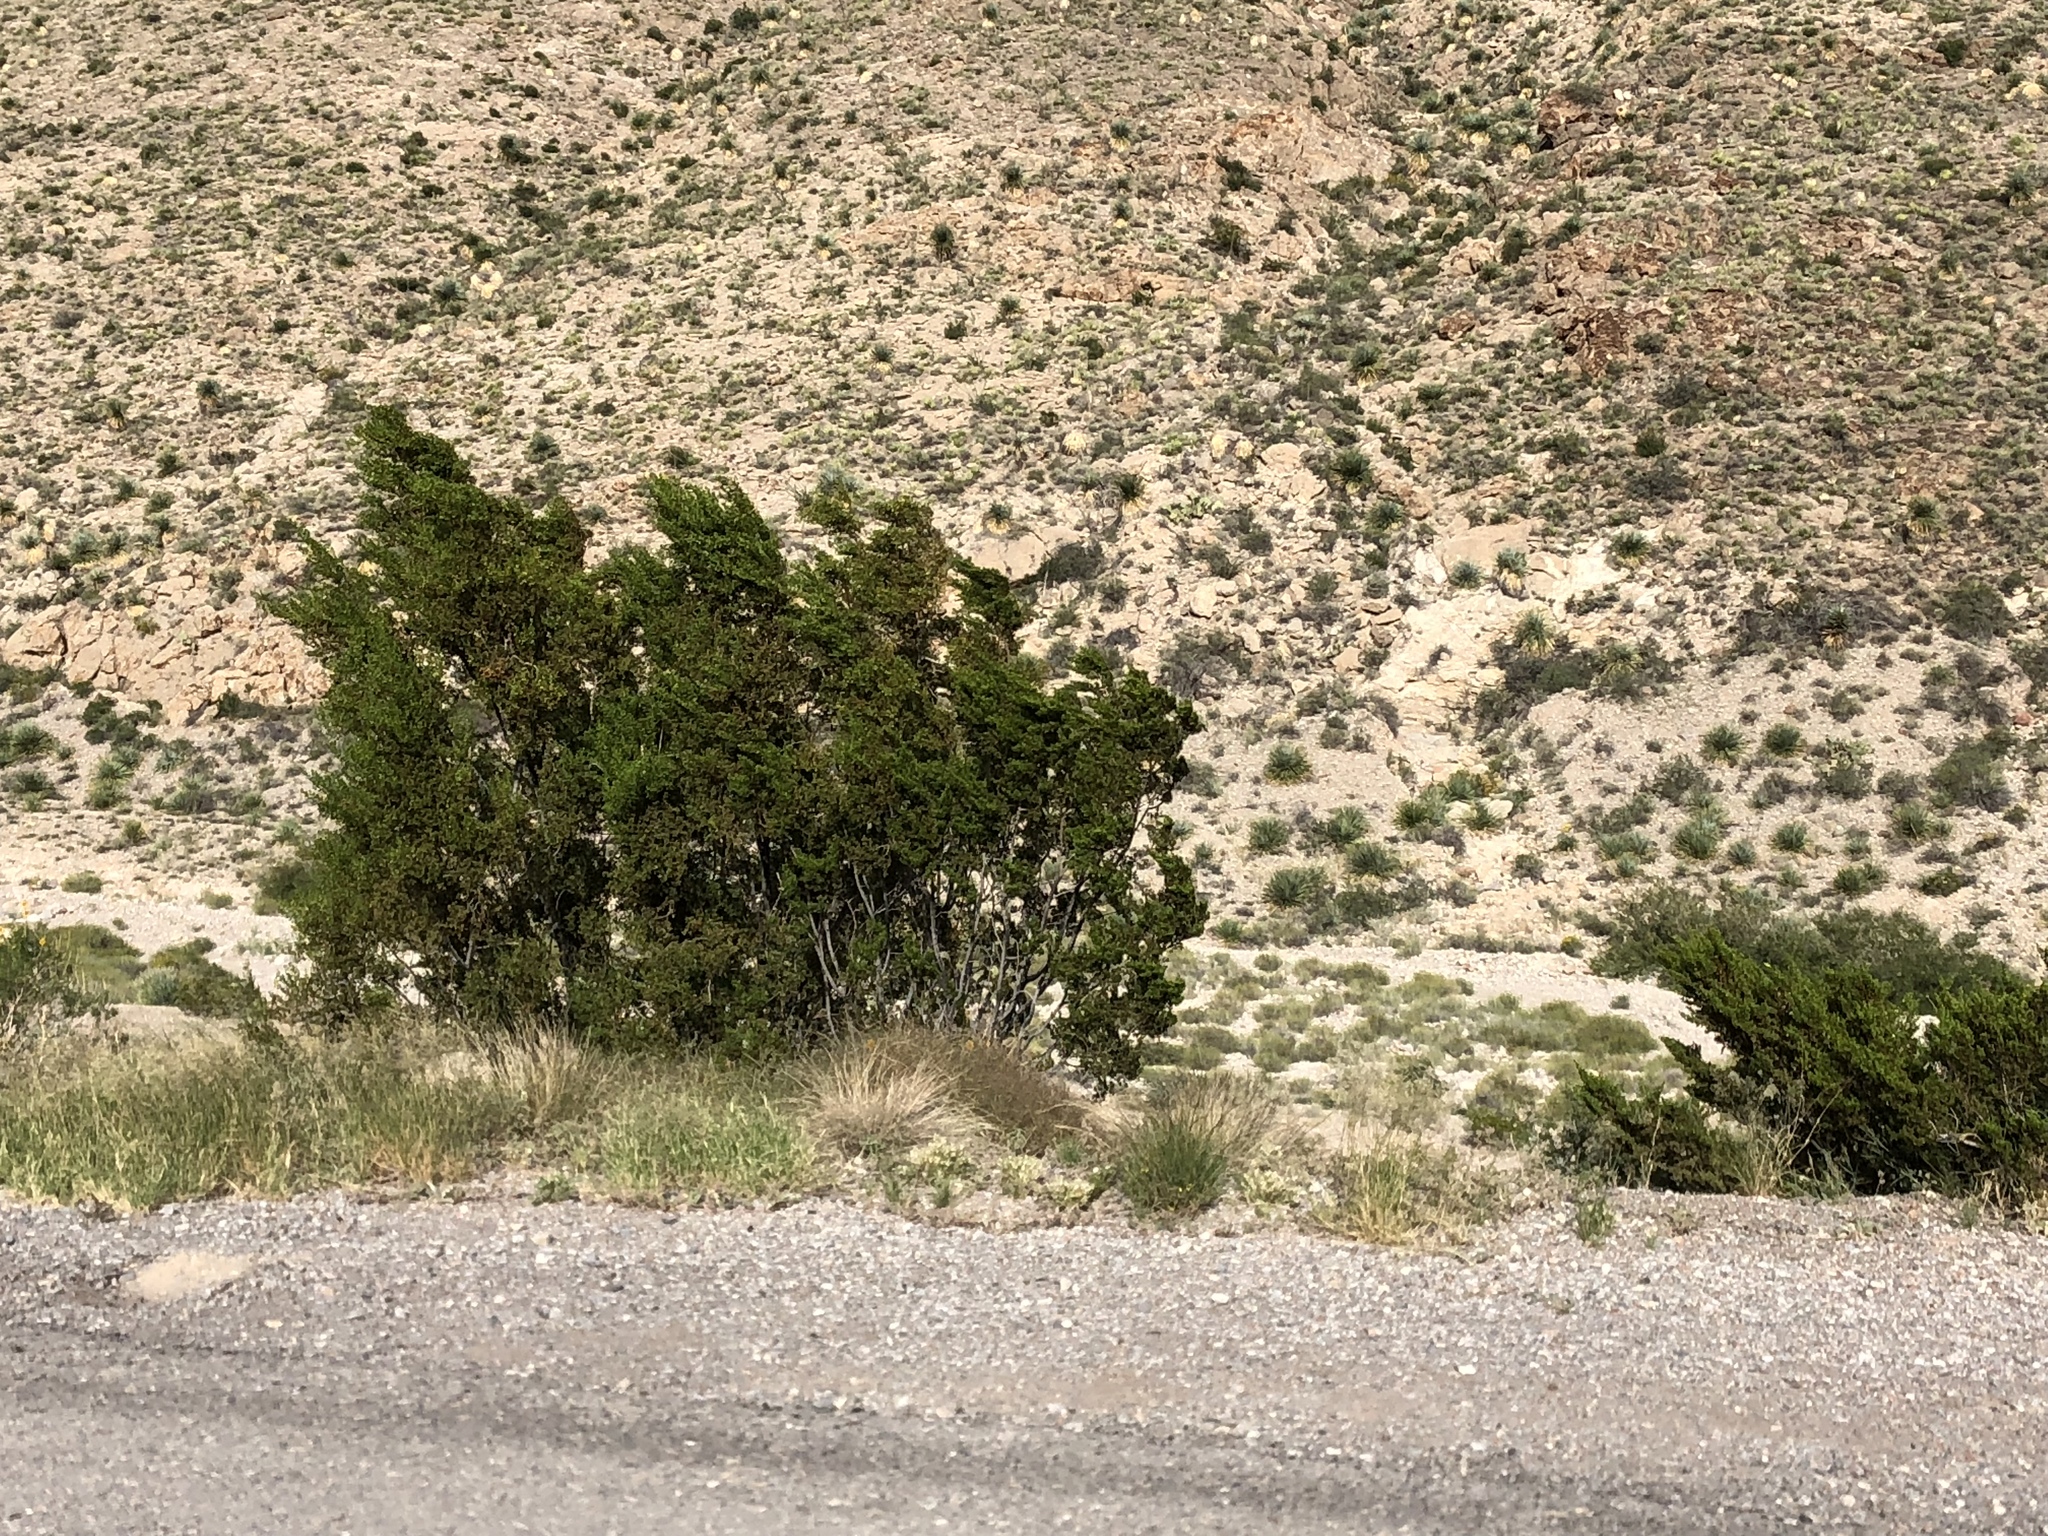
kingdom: Plantae
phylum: Tracheophyta
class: Magnoliopsida
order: Zygophyllales
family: Zygophyllaceae
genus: Larrea
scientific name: Larrea tridentata
